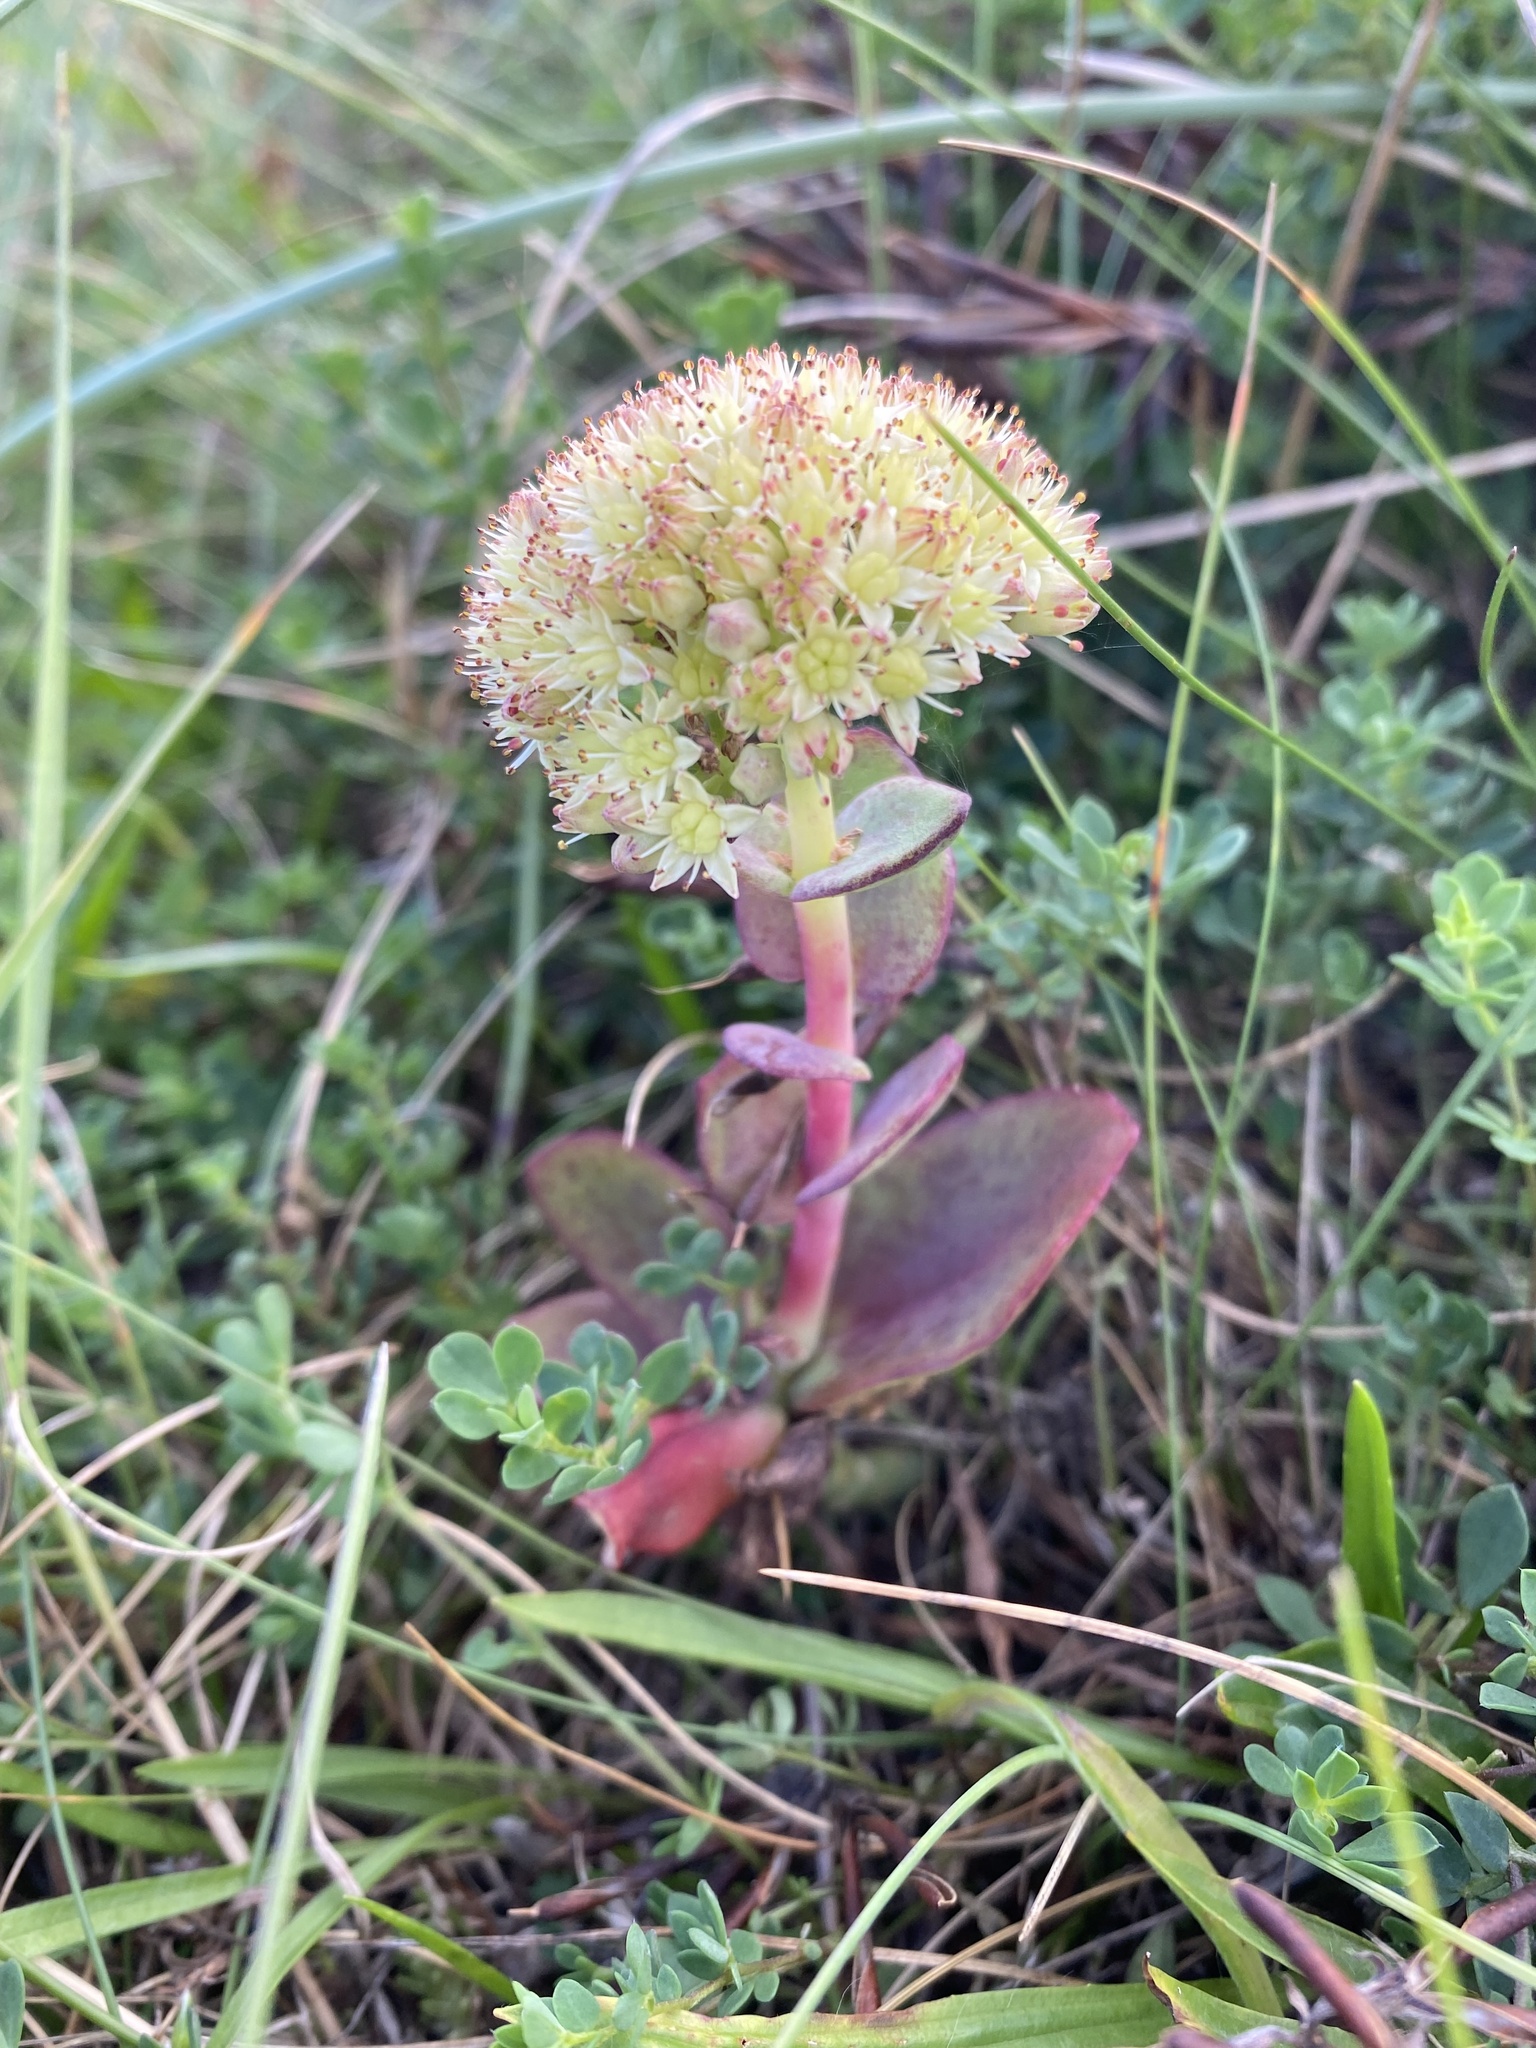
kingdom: Plantae
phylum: Tracheophyta
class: Magnoliopsida
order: Saxifragales
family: Crassulaceae
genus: Hylotelephium
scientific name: Hylotelephium maximum
